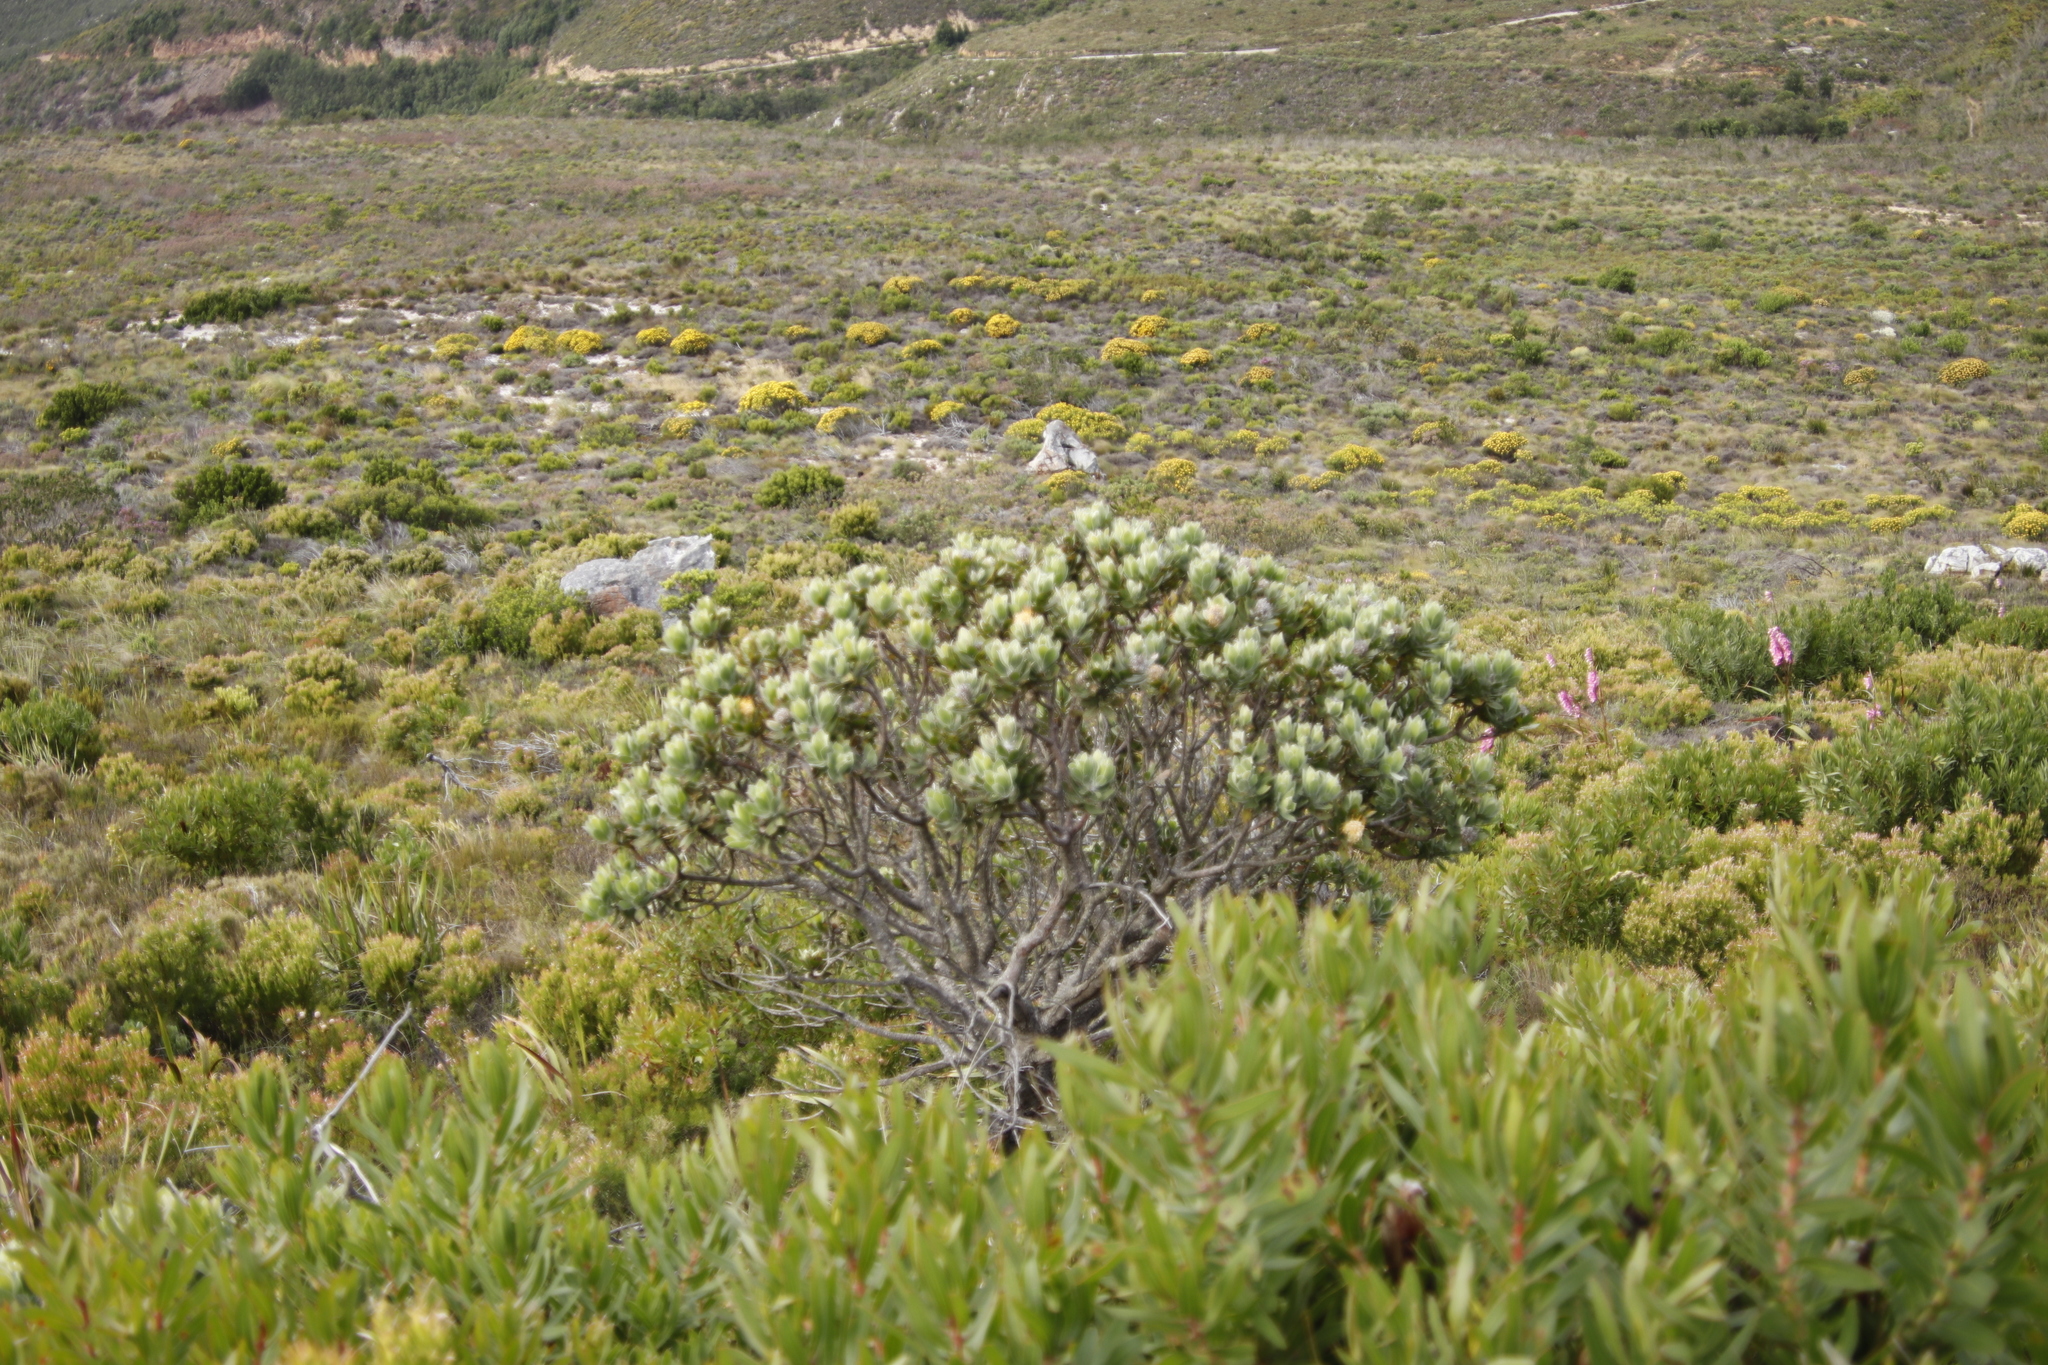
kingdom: Plantae
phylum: Tracheophyta
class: Magnoliopsida
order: Proteales
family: Proteaceae
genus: Leucospermum
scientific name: Leucospermum conocarpodendron
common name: Tree pincushion
